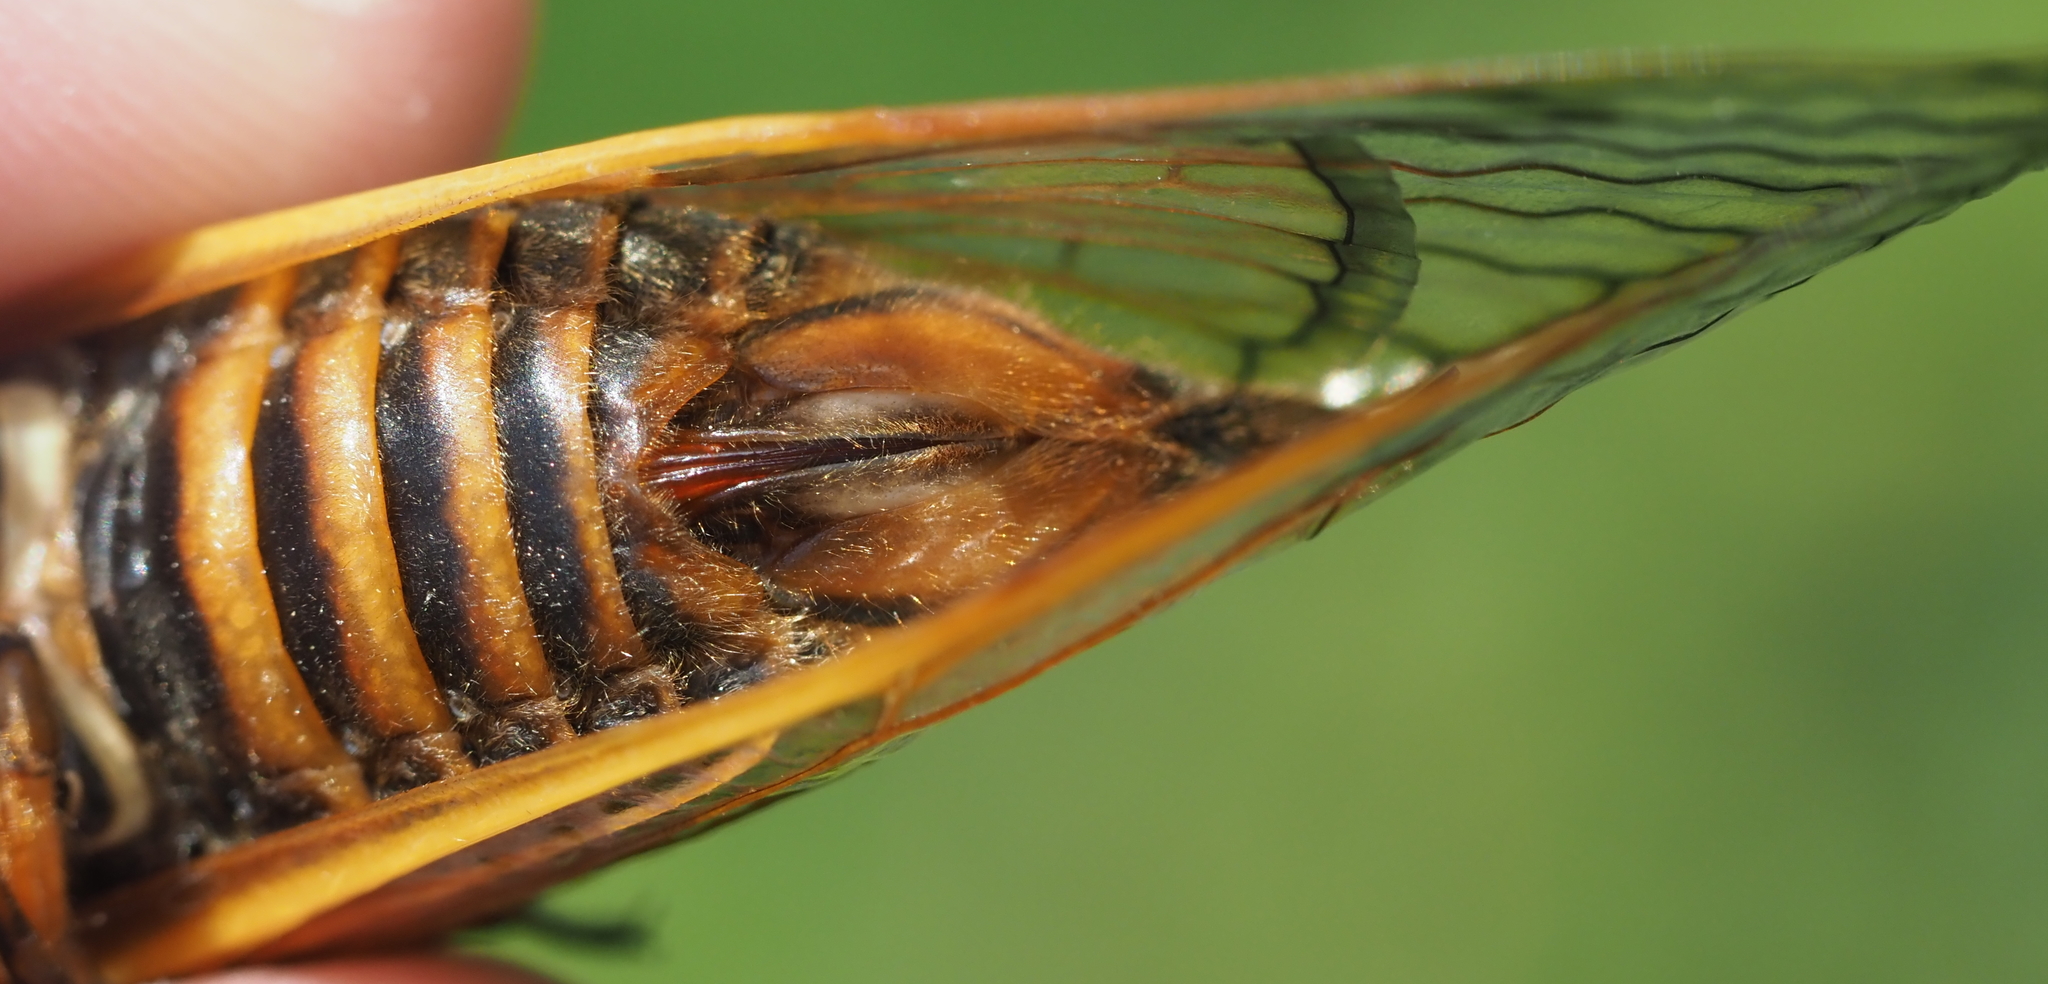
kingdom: Animalia
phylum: Arthropoda
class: Insecta
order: Hemiptera
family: Cicadidae
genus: Magicicada
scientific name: Magicicada septendecim
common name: Periodical cicada
